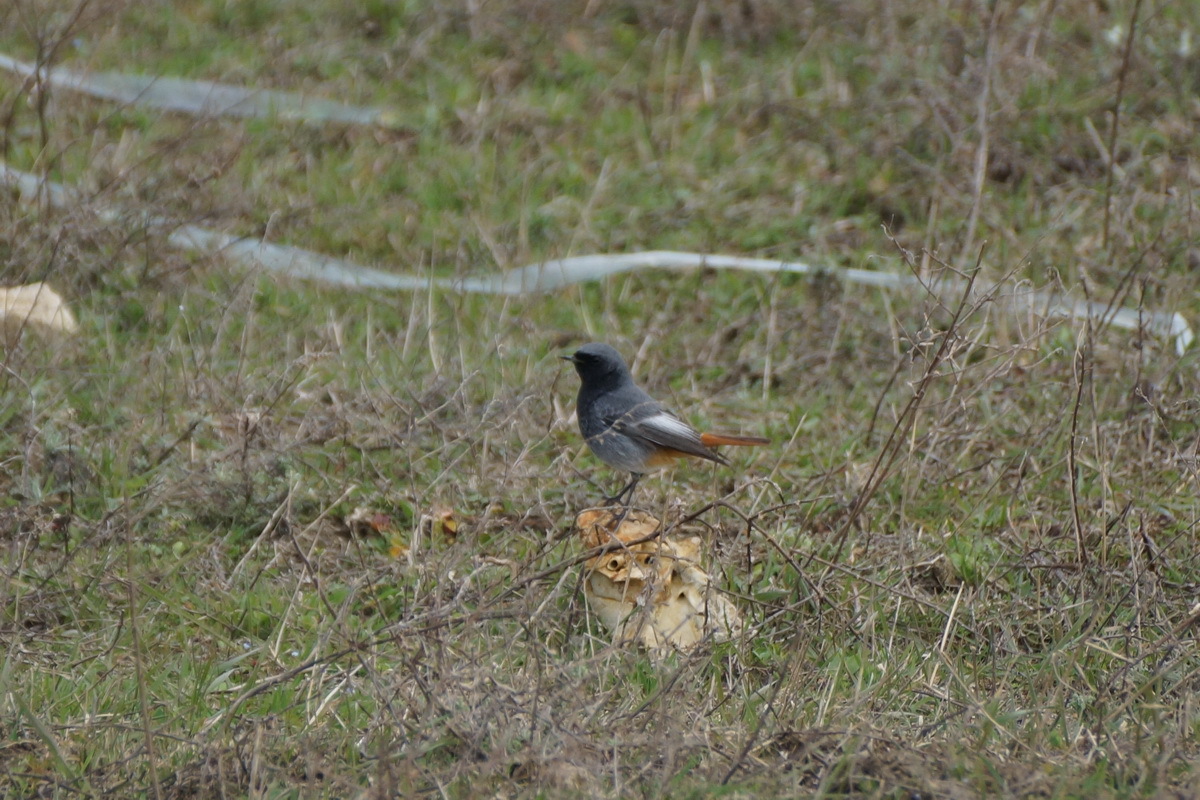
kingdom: Animalia
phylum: Chordata
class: Aves
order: Passeriformes
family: Muscicapidae
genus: Phoenicurus
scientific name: Phoenicurus ochruros
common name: Black redstart
